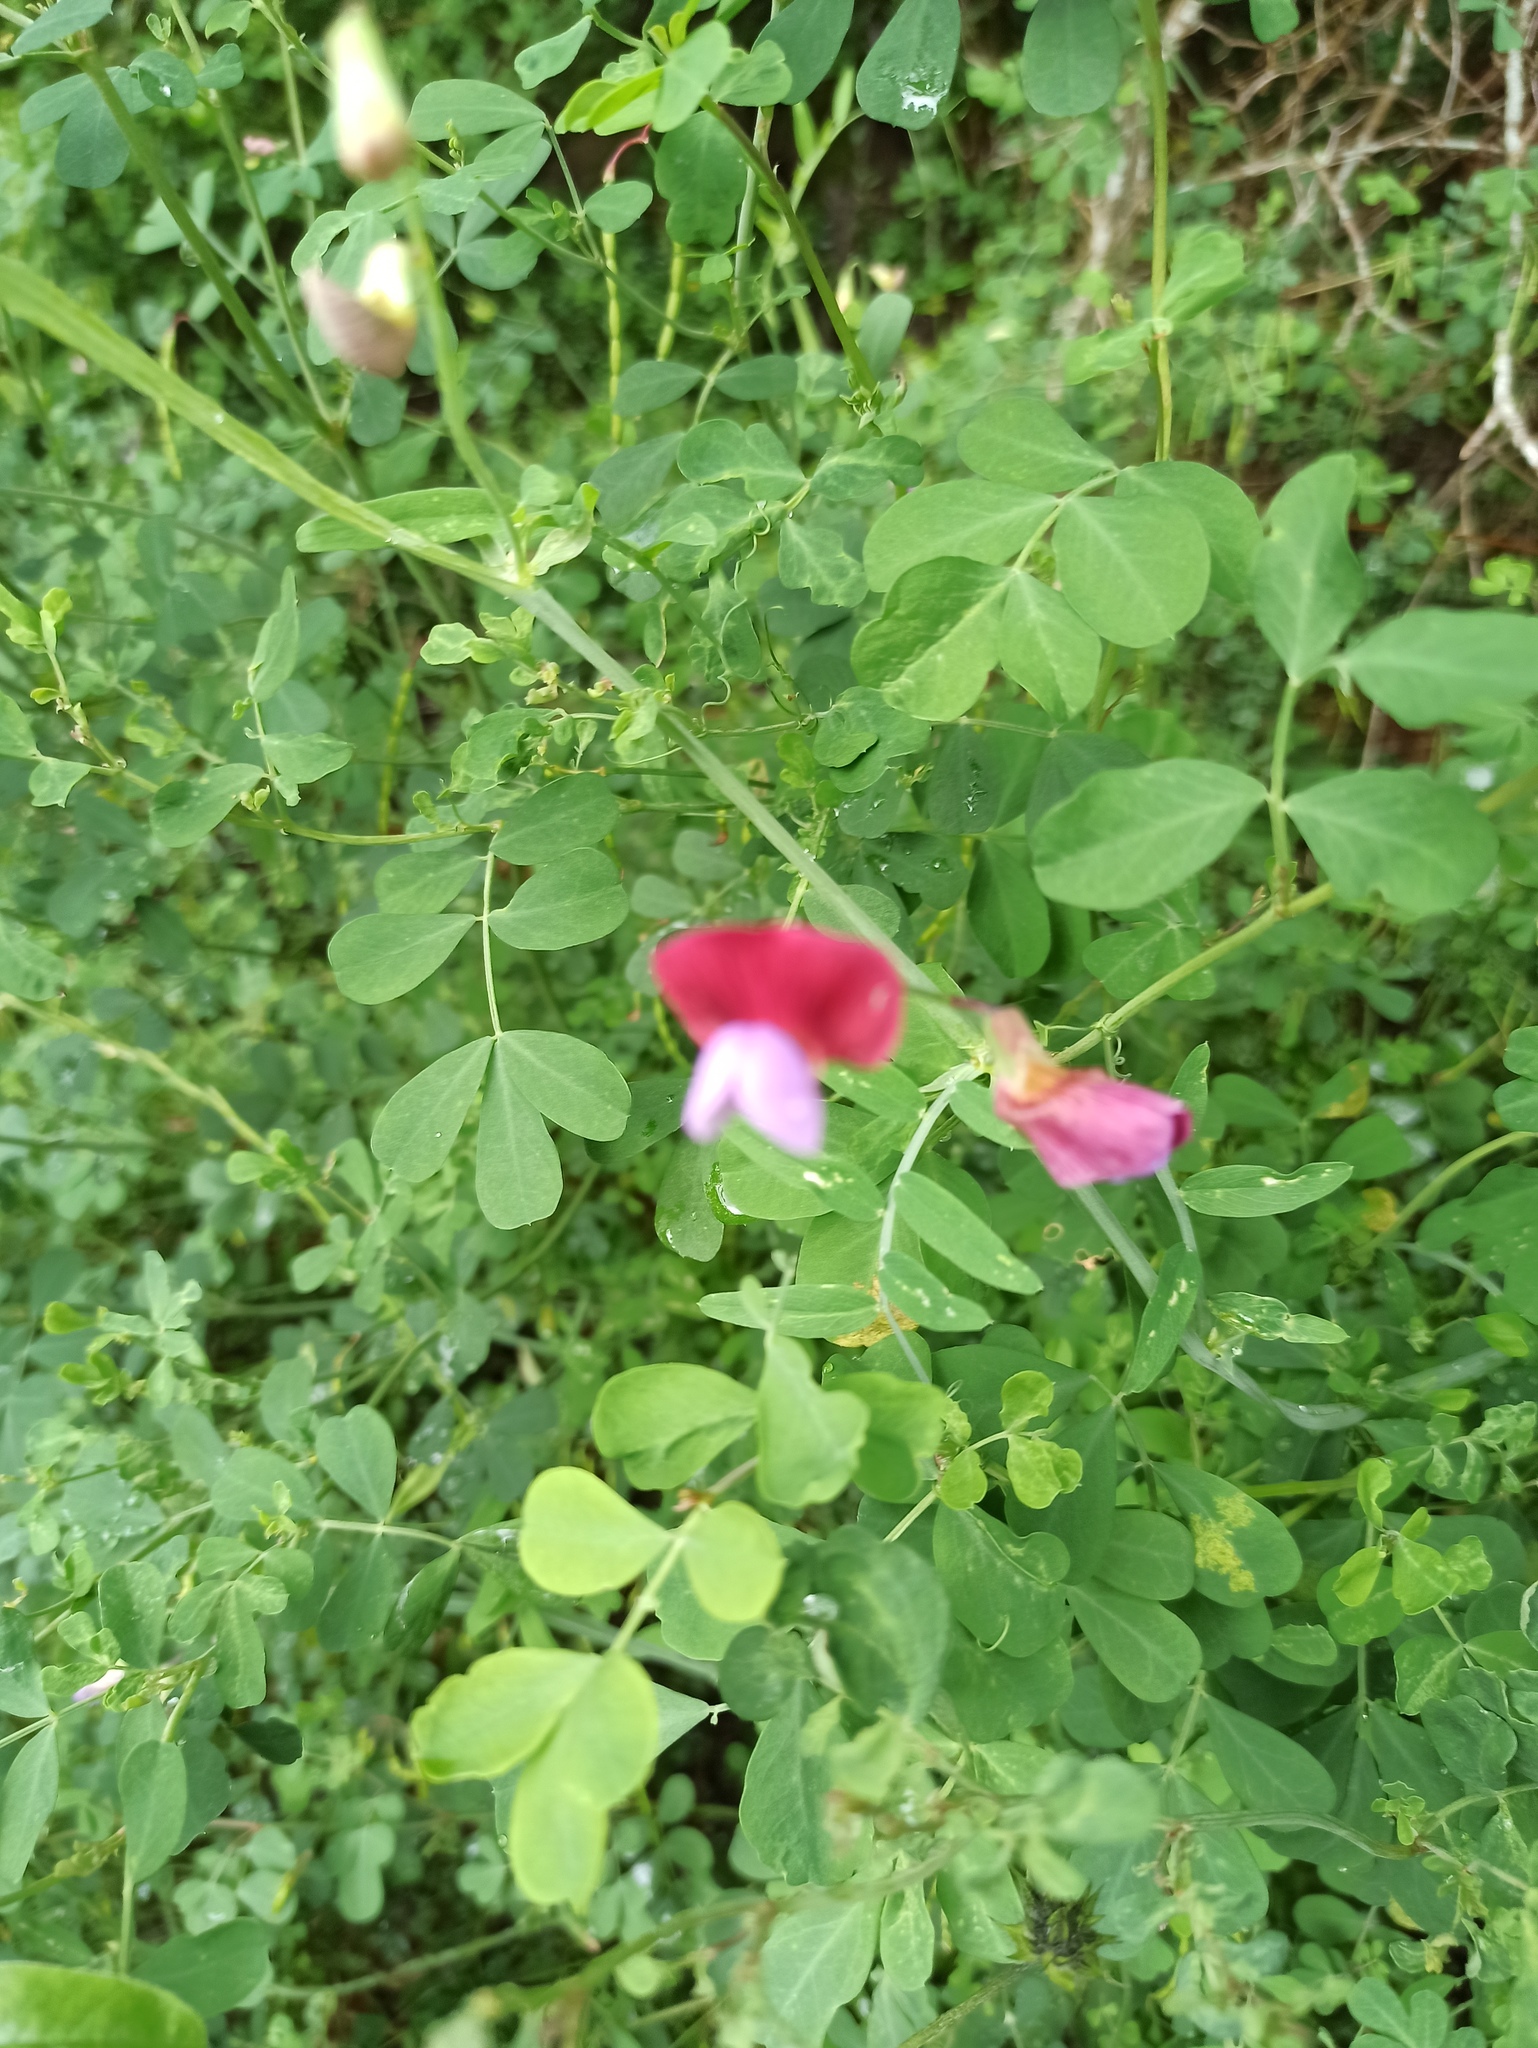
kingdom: Plantae
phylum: Tracheophyta
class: Magnoliopsida
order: Fabales
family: Fabaceae
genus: Lathyrus
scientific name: Lathyrus clymenum
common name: Spanish vetchling
